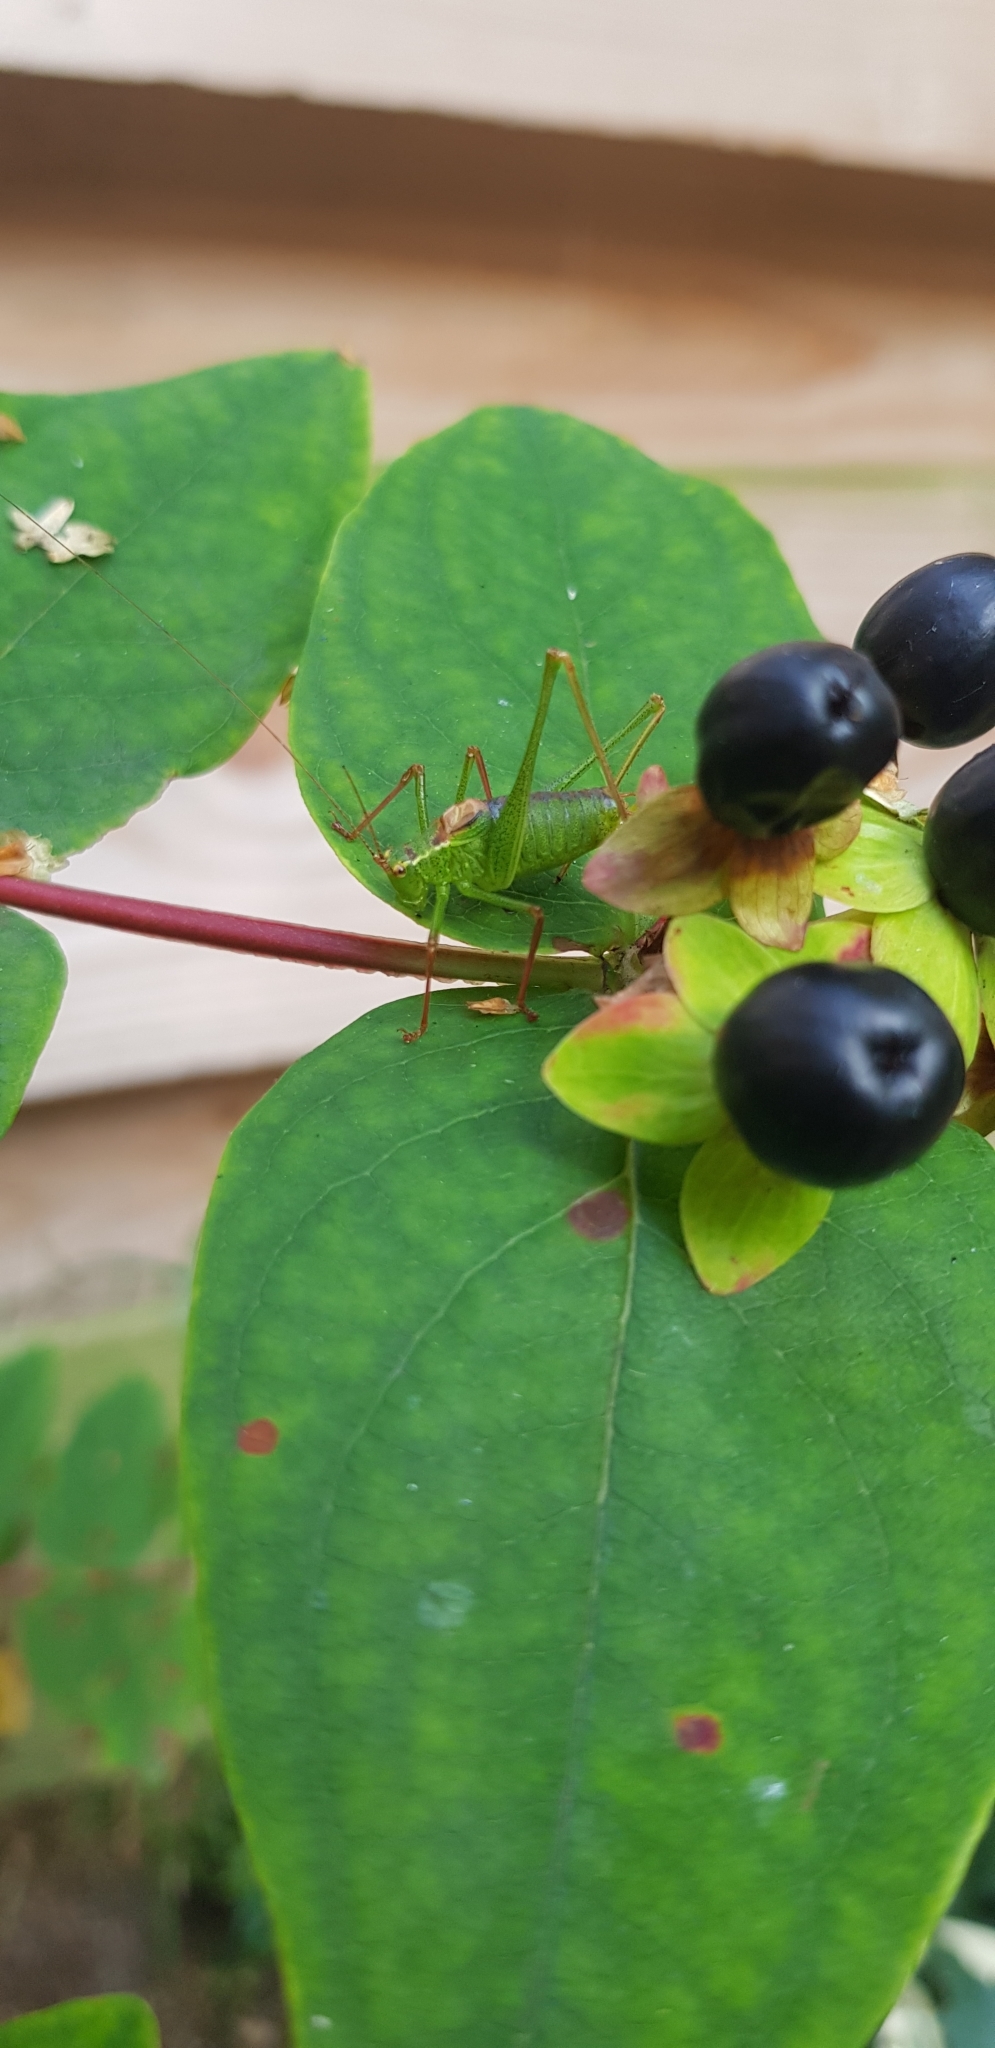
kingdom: Animalia
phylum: Arthropoda
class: Insecta
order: Orthoptera
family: Tettigoniidae
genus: Leptophyes
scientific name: Leptophyes punctatissima
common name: Speckled bush-cricket
